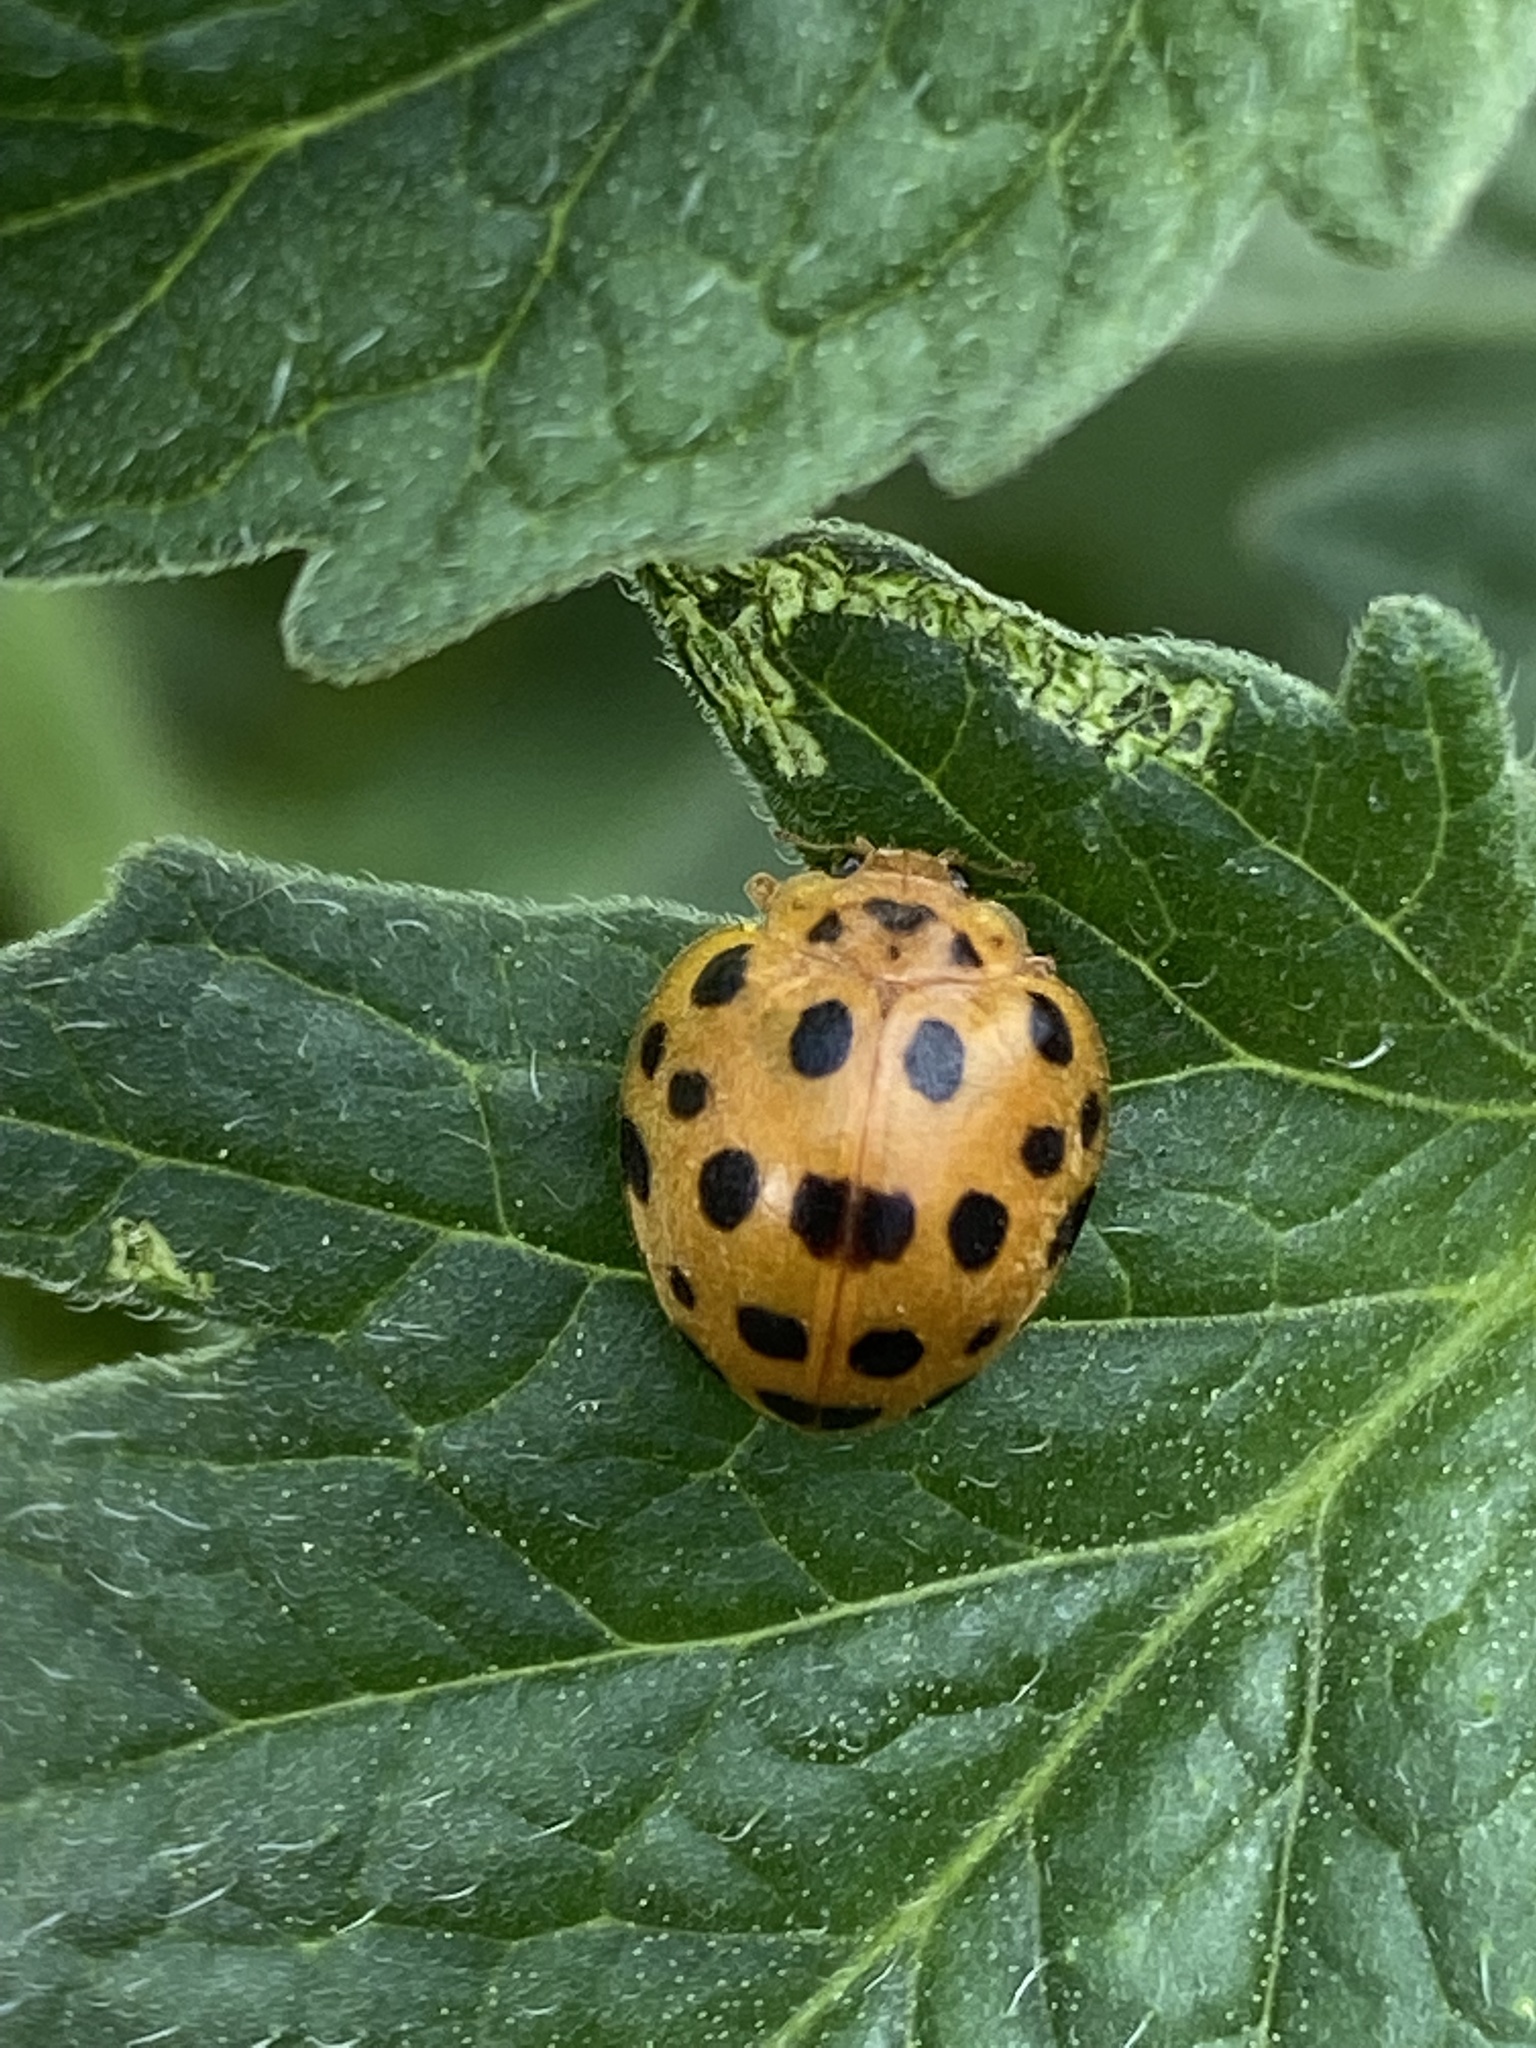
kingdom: Animalia
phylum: Arthropoda
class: Insecta
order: Coleoptera
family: Coccinellidae
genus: Henosepilachna
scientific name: Henosepilachna vigintioctopunctata
